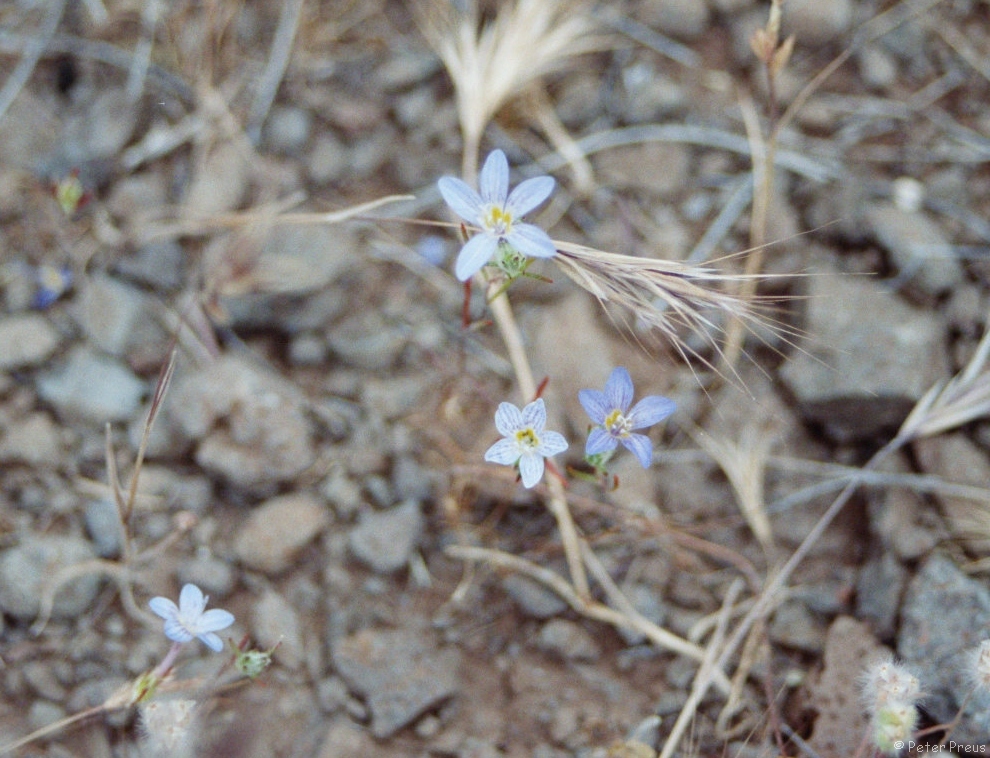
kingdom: Plantae
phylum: Tracheophyta
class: Magnoliopsida
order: Ericales
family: Polemoniaceae
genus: Eriastrum
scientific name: Eriastrum eremicum
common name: Desert eriastrum
